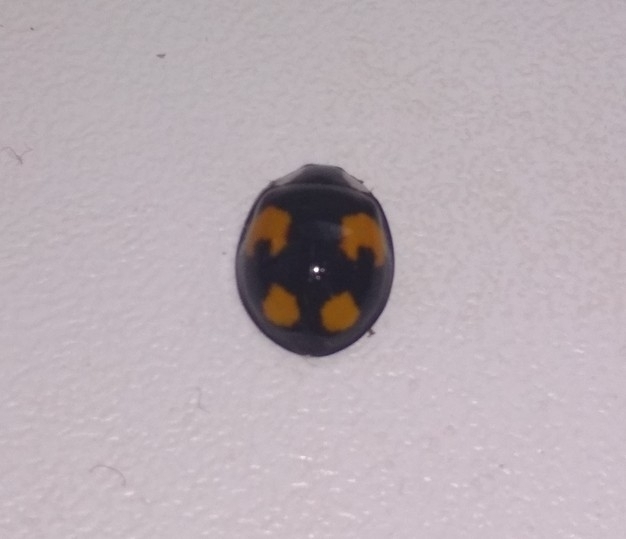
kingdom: Animalia
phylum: Arthropoda
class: Insecta
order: Coleoptera
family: Coccinellidae
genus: Harmonia
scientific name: Harmonia axyridis
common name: Harlequin ladybird
